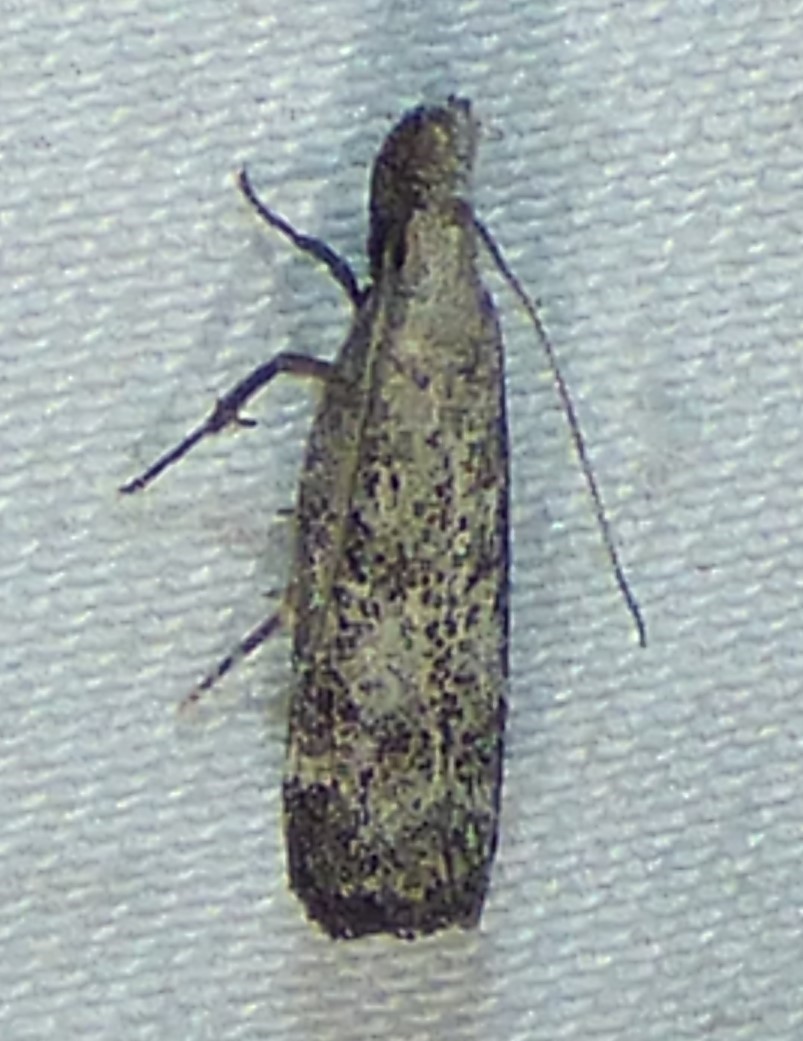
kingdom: Animalia
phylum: Arthropoda
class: Insecta
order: Lepidoptera
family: Gelechiidae
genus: Dichomeris
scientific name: Dichomeris inversella
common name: Inverse dichomeris moth
